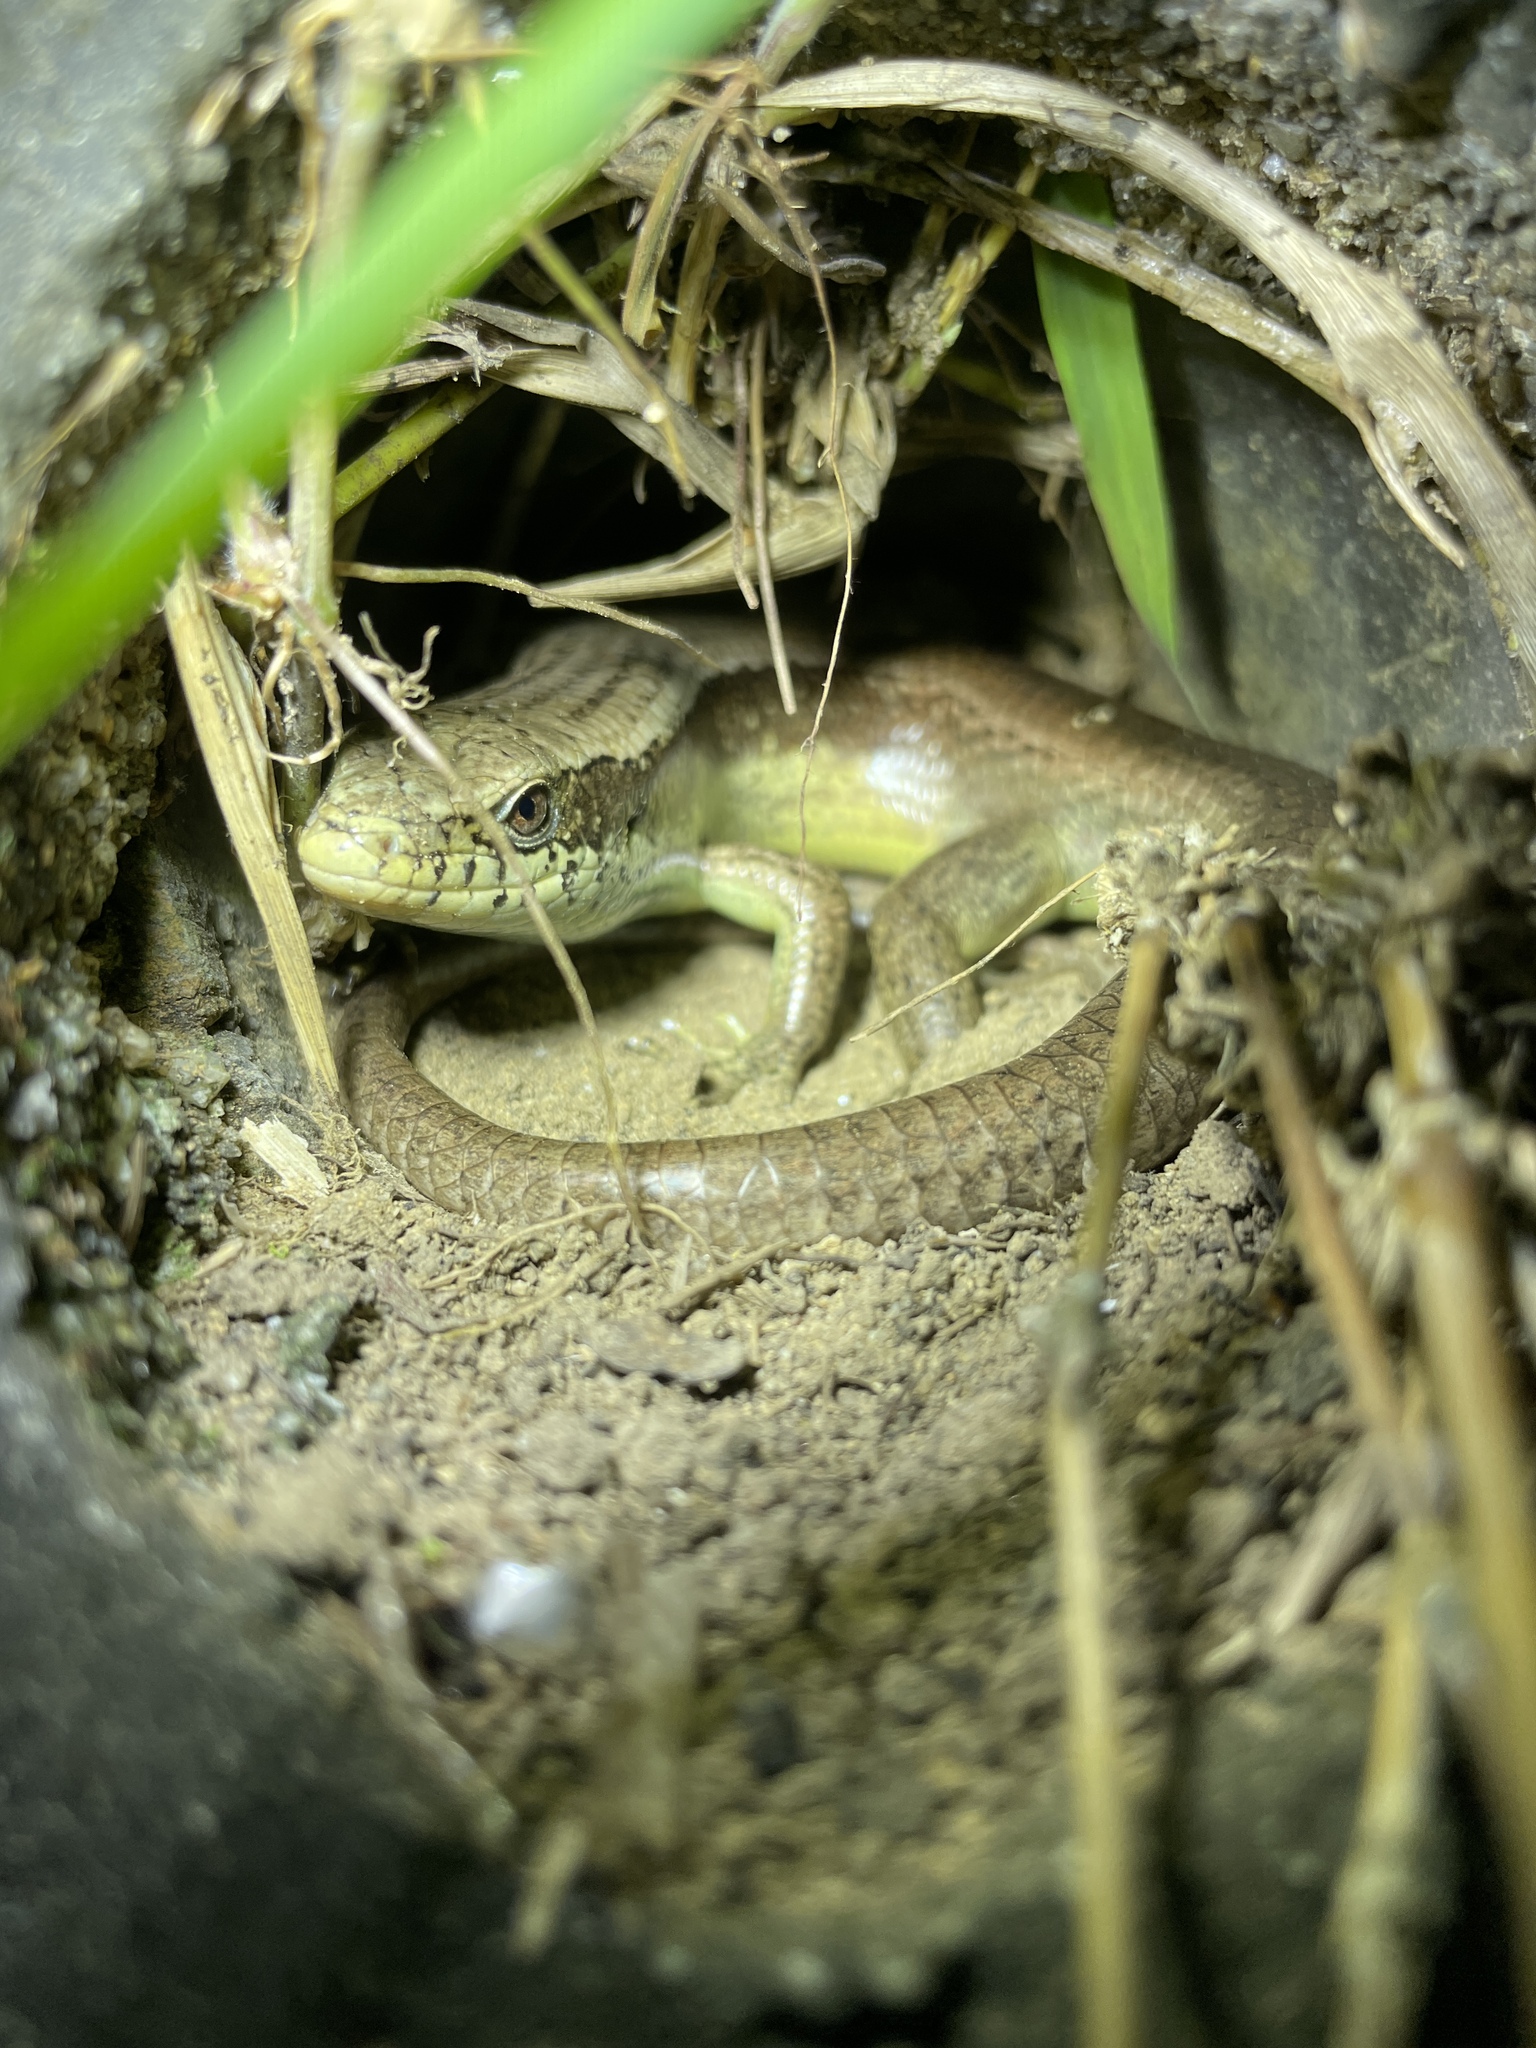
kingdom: Animalia
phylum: Chordata
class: Squamata
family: Scincidae
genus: Eutropis
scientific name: Eutropis longicaudata
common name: Long-tailed sun skink
